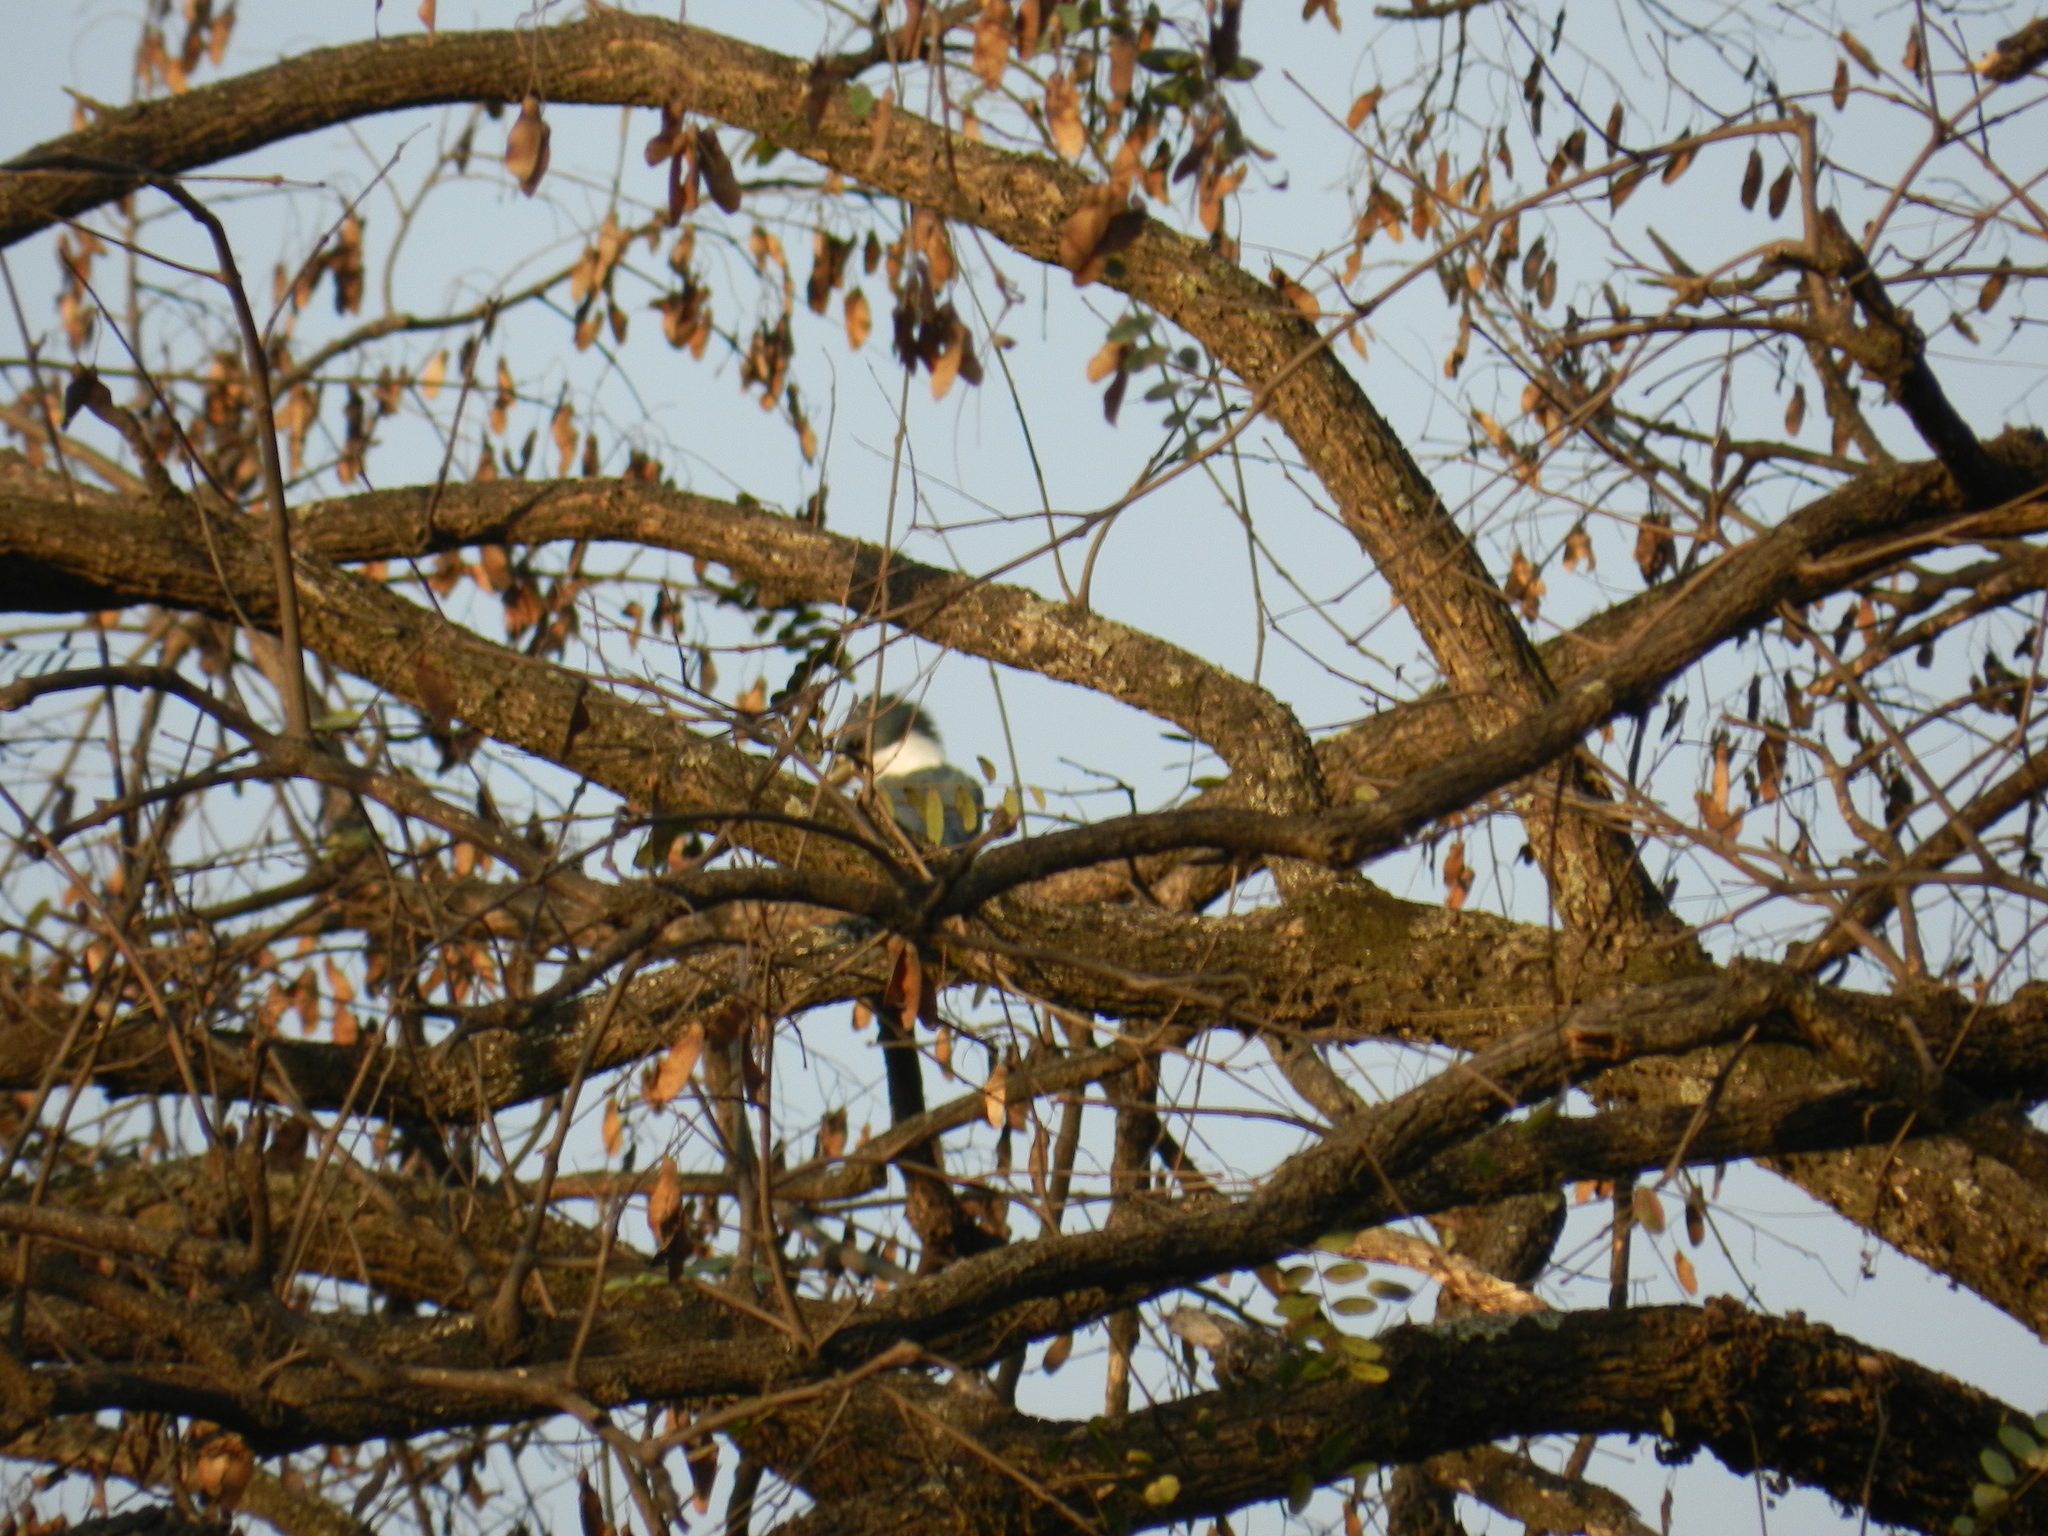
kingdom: Animalia
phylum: Chordata
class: Aves
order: Coraciiformes
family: Alcedinidae
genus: Megaceryle
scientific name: Megaceryle torquata
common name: Ringed kingfisher
